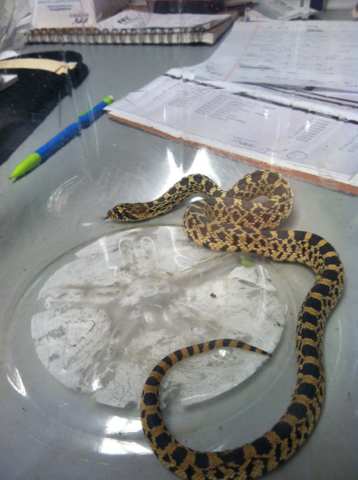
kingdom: Animalia
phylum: Chordata
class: Squamata
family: Colubridae
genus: Pituophis
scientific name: Pituophis catenifer
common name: Gopher snake
